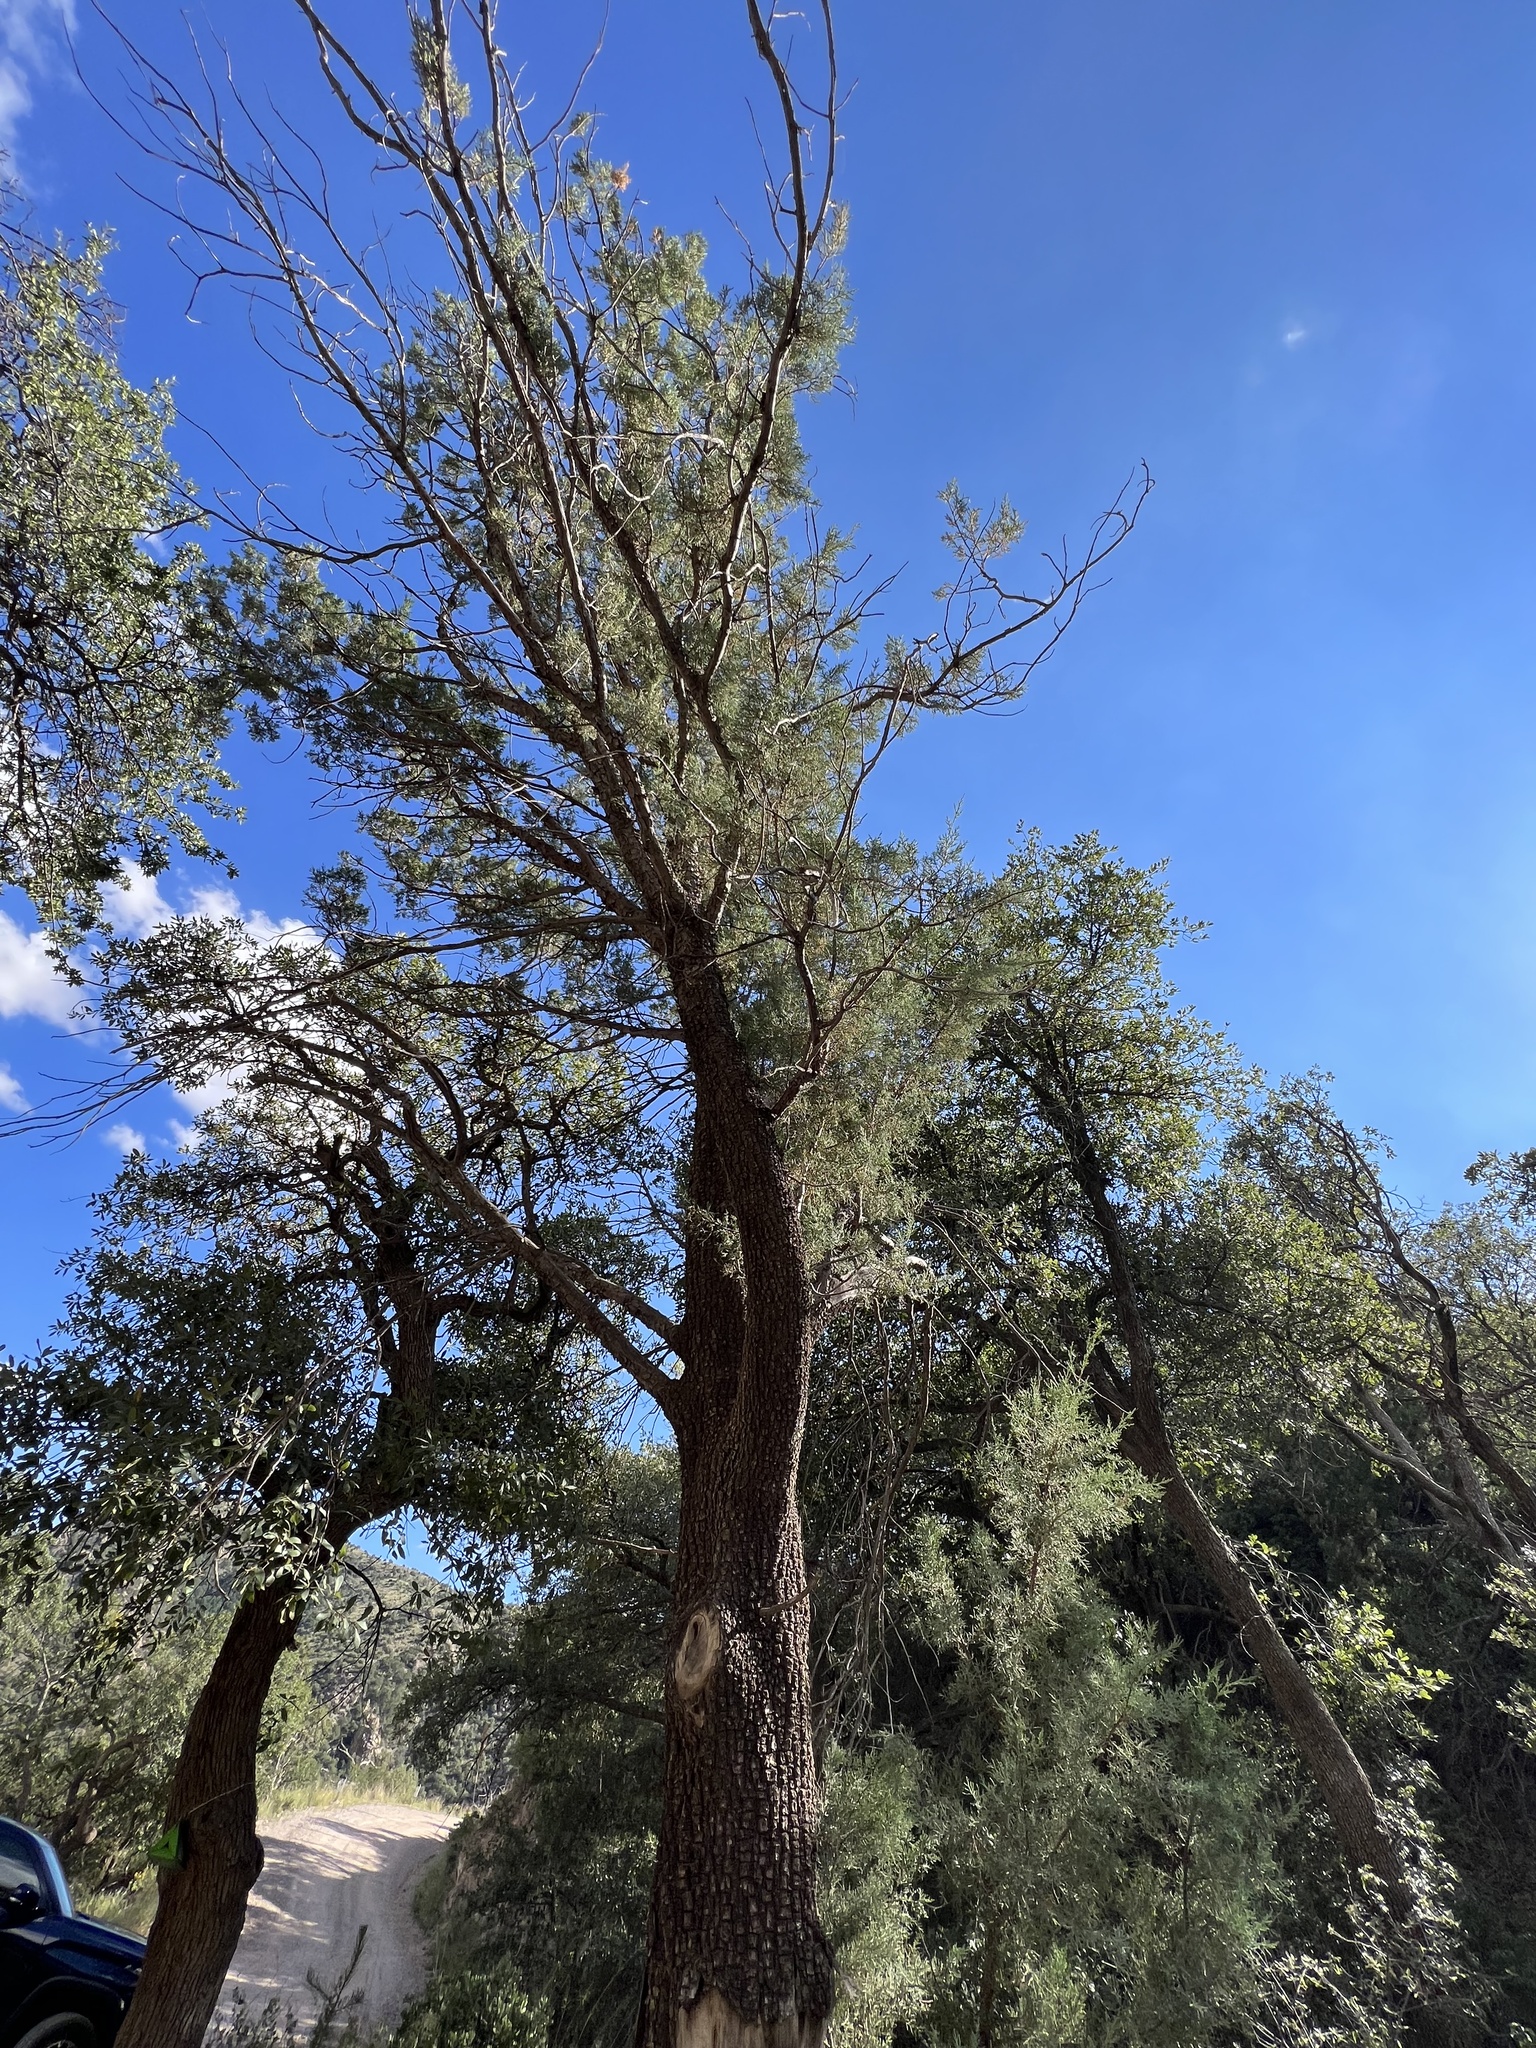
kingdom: Plantae
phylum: Tracheophyta
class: Pinopsida
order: Pinales
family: Cupressaceae
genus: Juniperus
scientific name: Juniperus deppeana
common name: Alligator juniper
